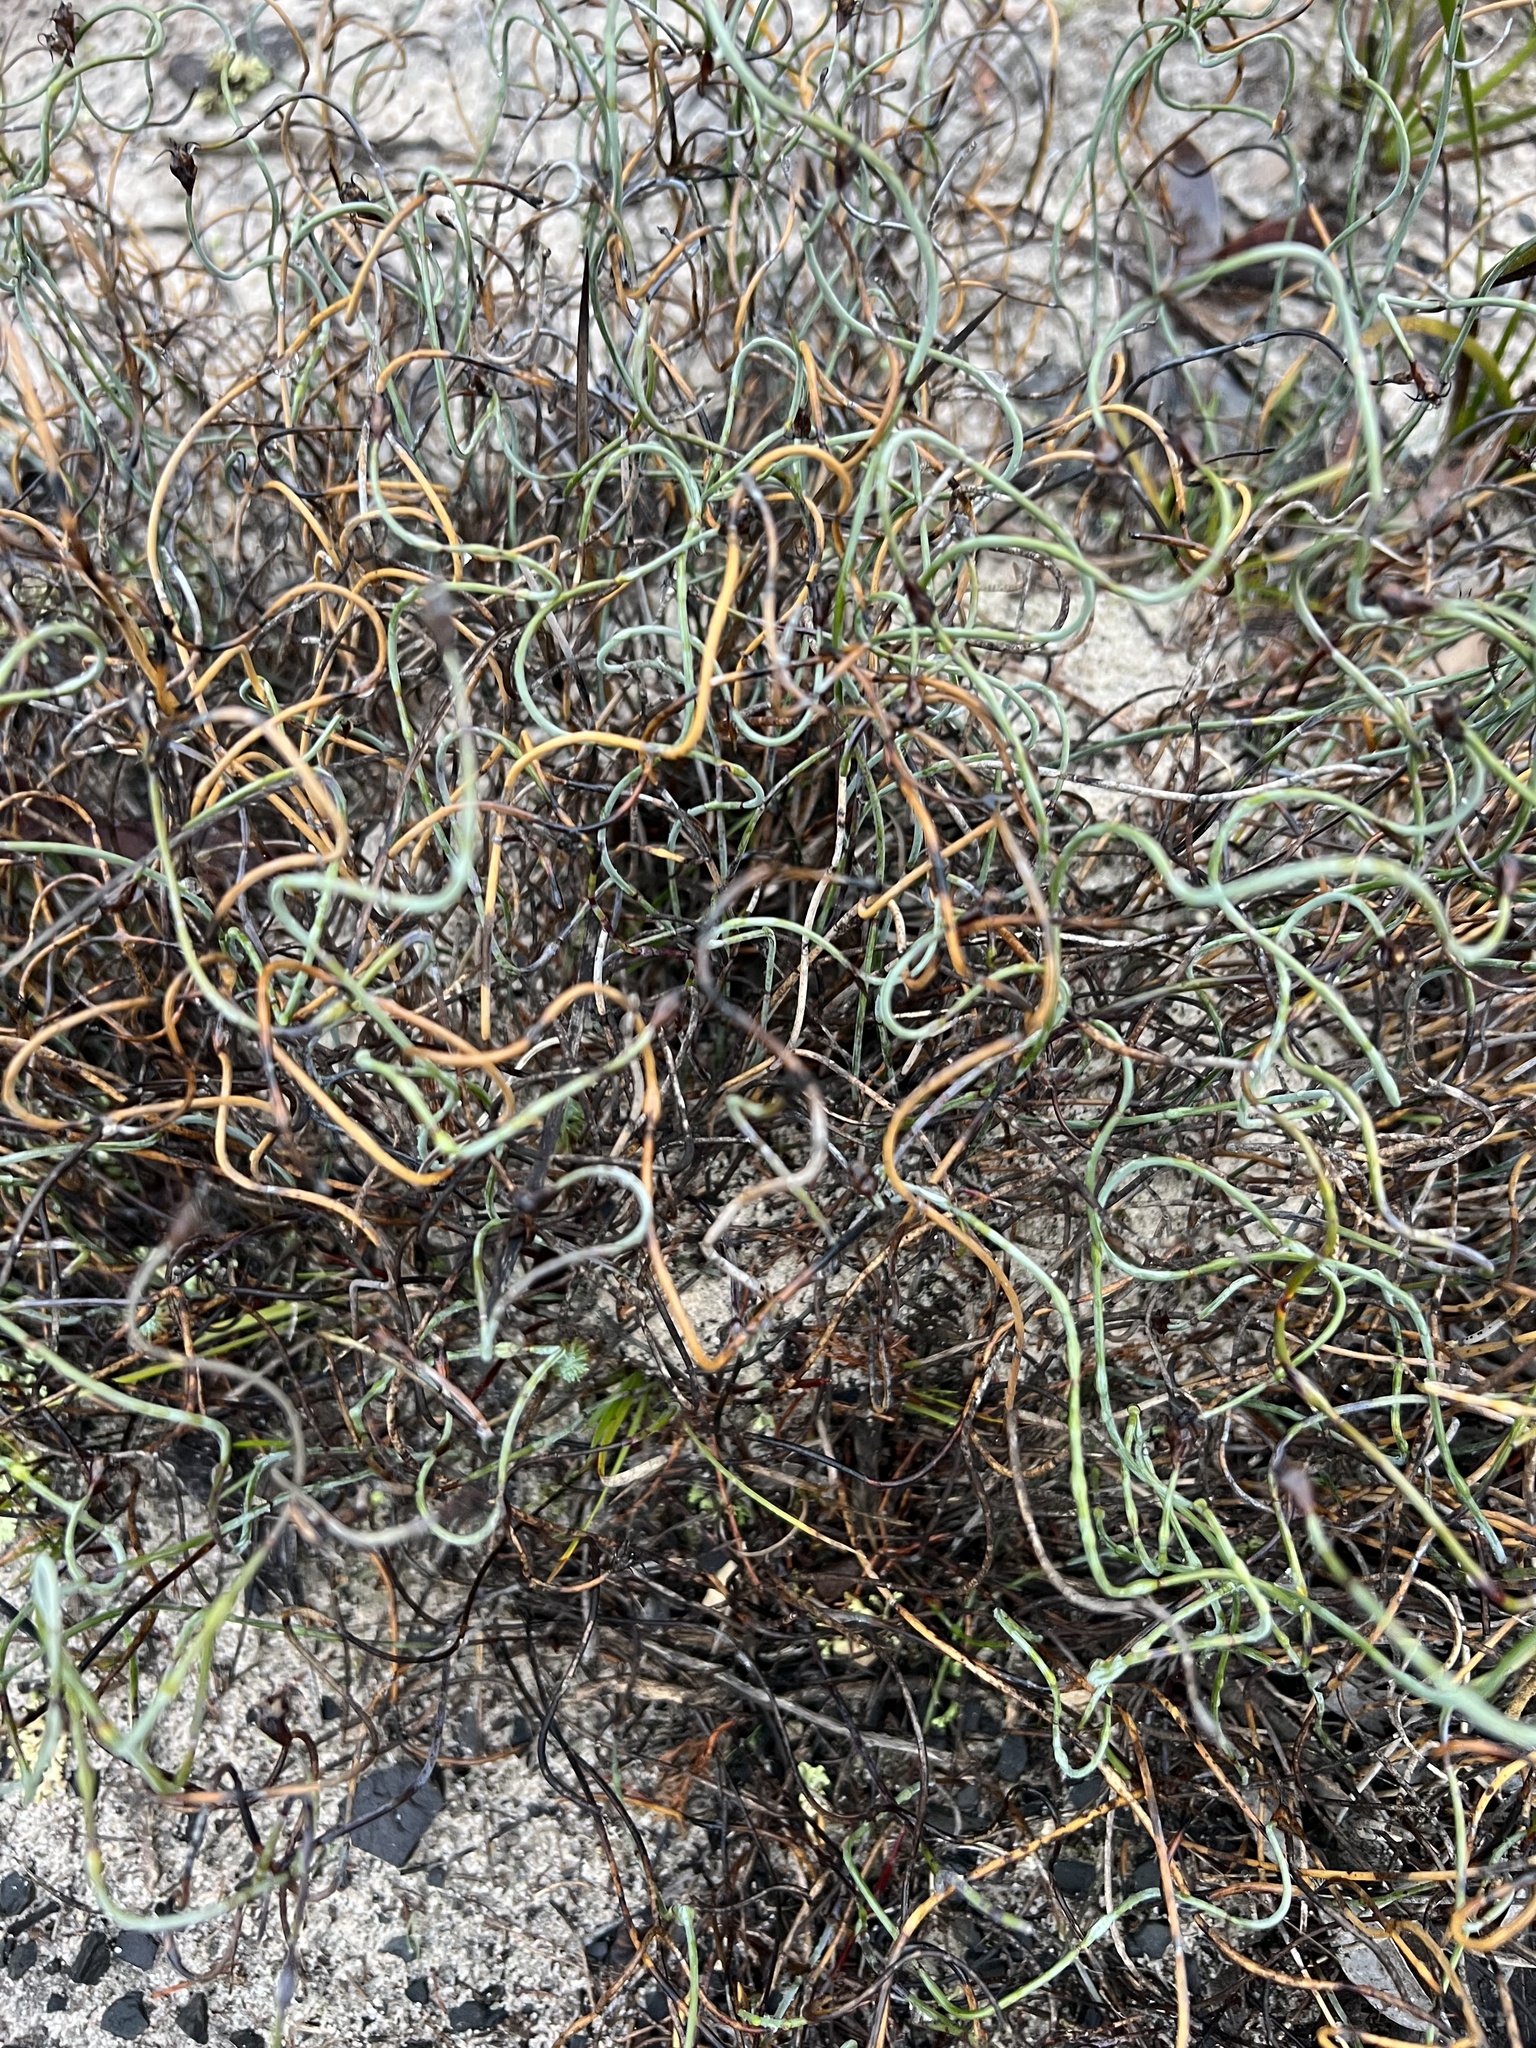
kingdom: Plantae
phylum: Tracheophyta
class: Liliopsida
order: Poales
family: Restionaceae
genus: Lepidobolus
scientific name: Lepidobolus drapetocoleus
